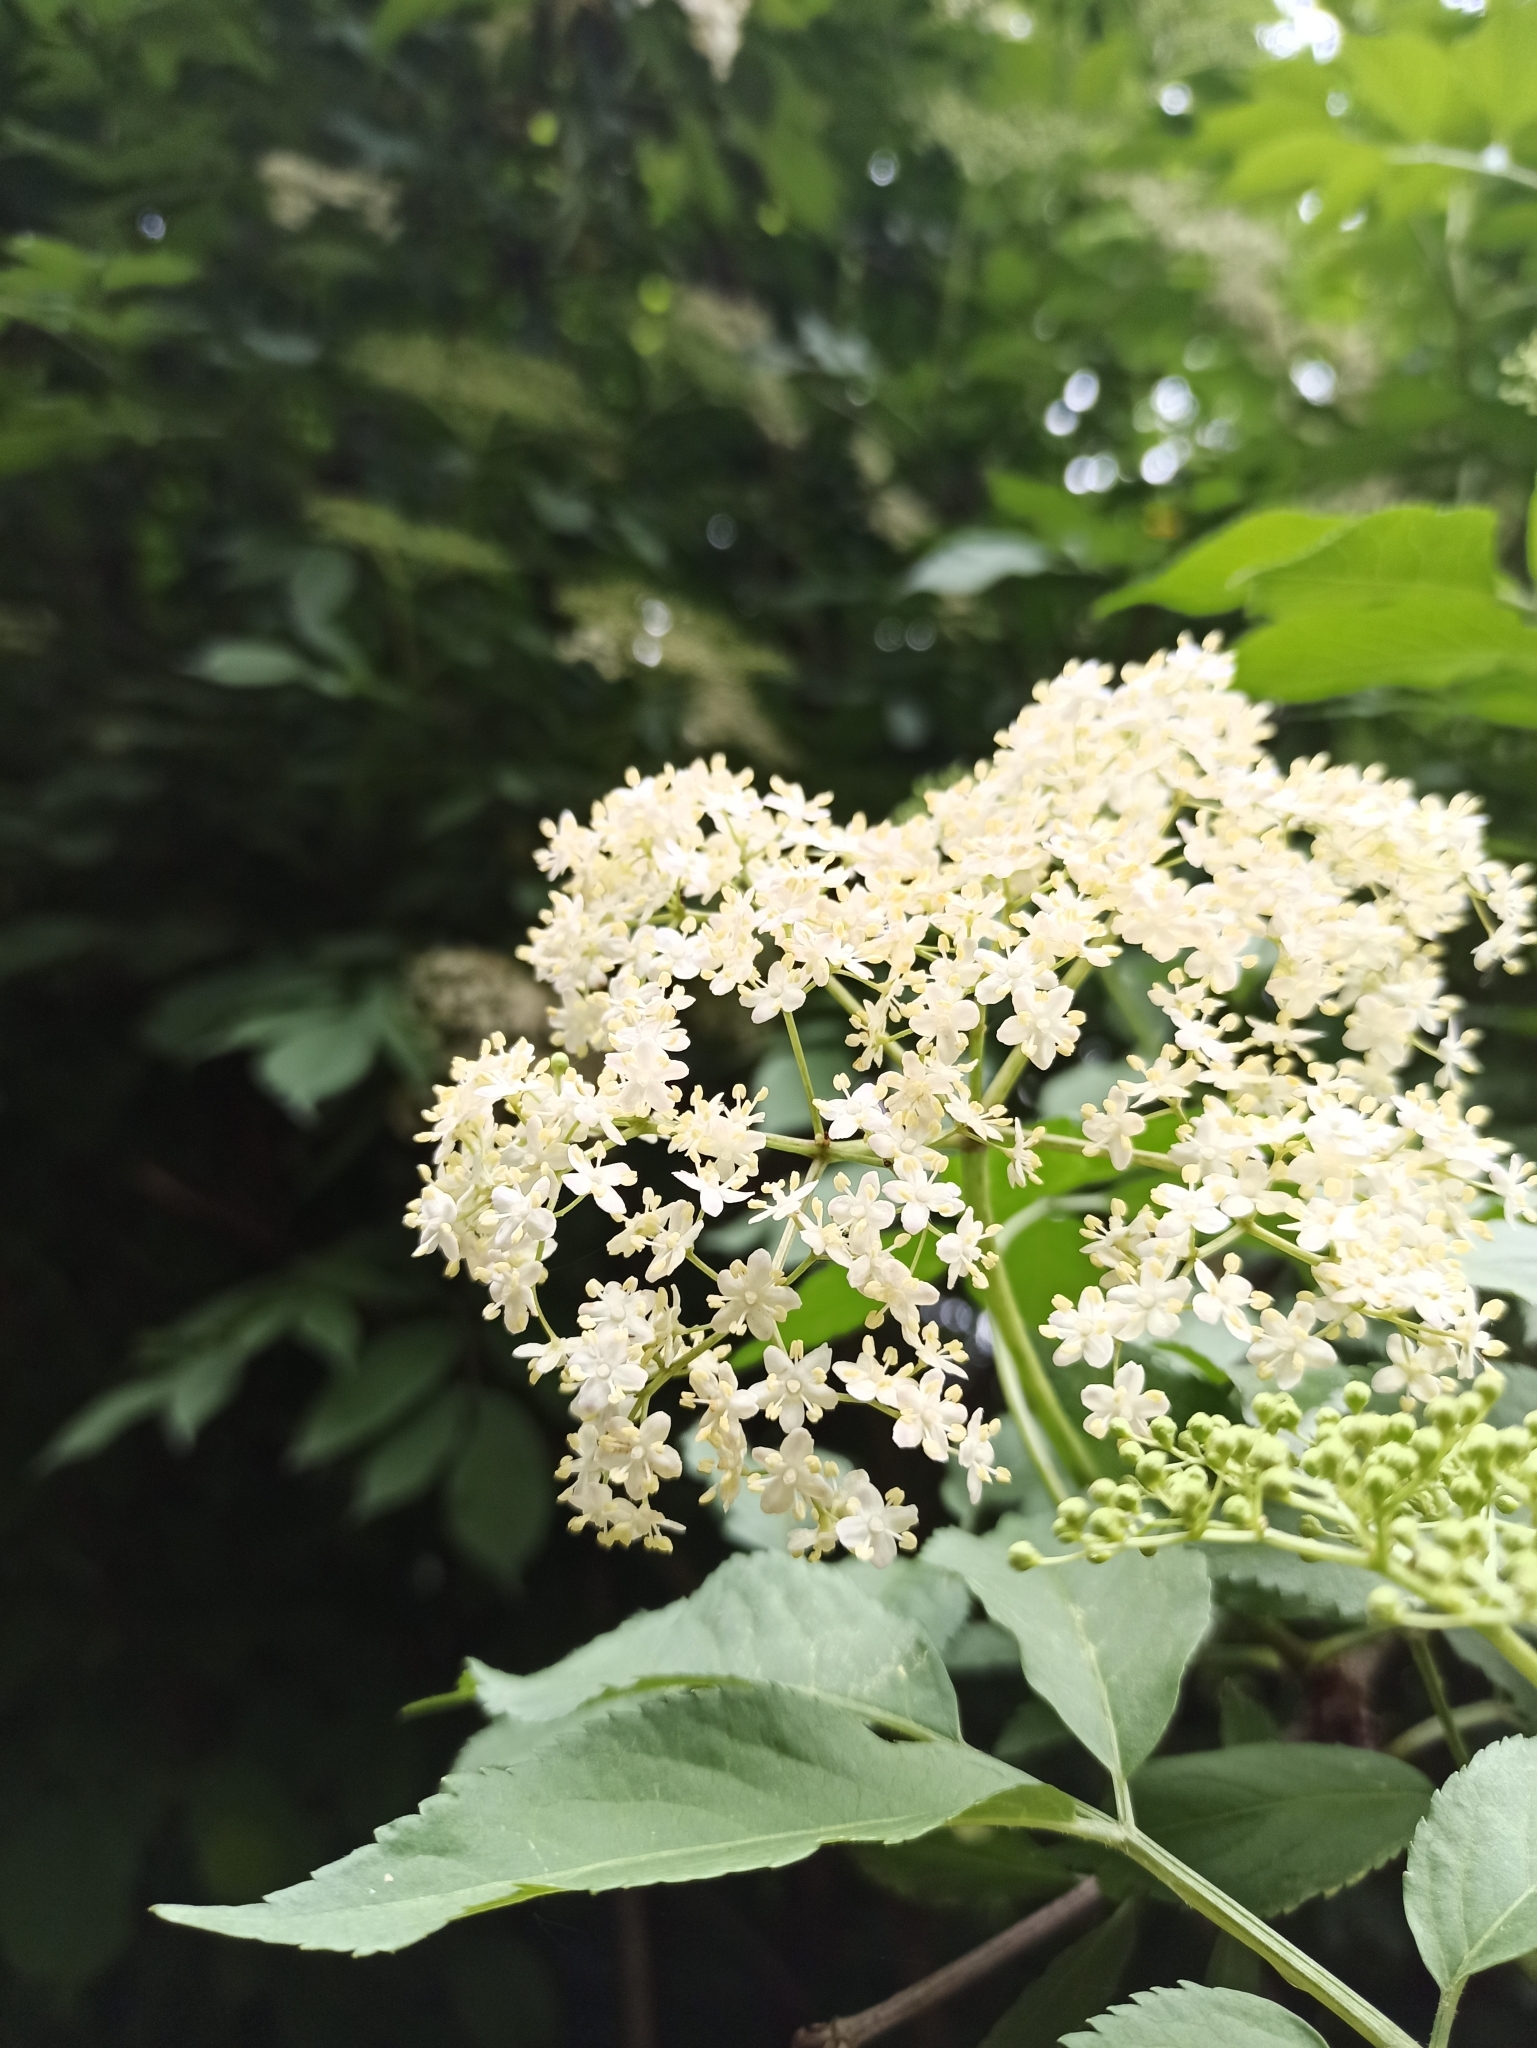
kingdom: Plantae
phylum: Tracheophyta
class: Magnoliopsida
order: Dipsacales
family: Viburnaceae
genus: Sambucus
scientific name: Sambucus nigra
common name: Elder
